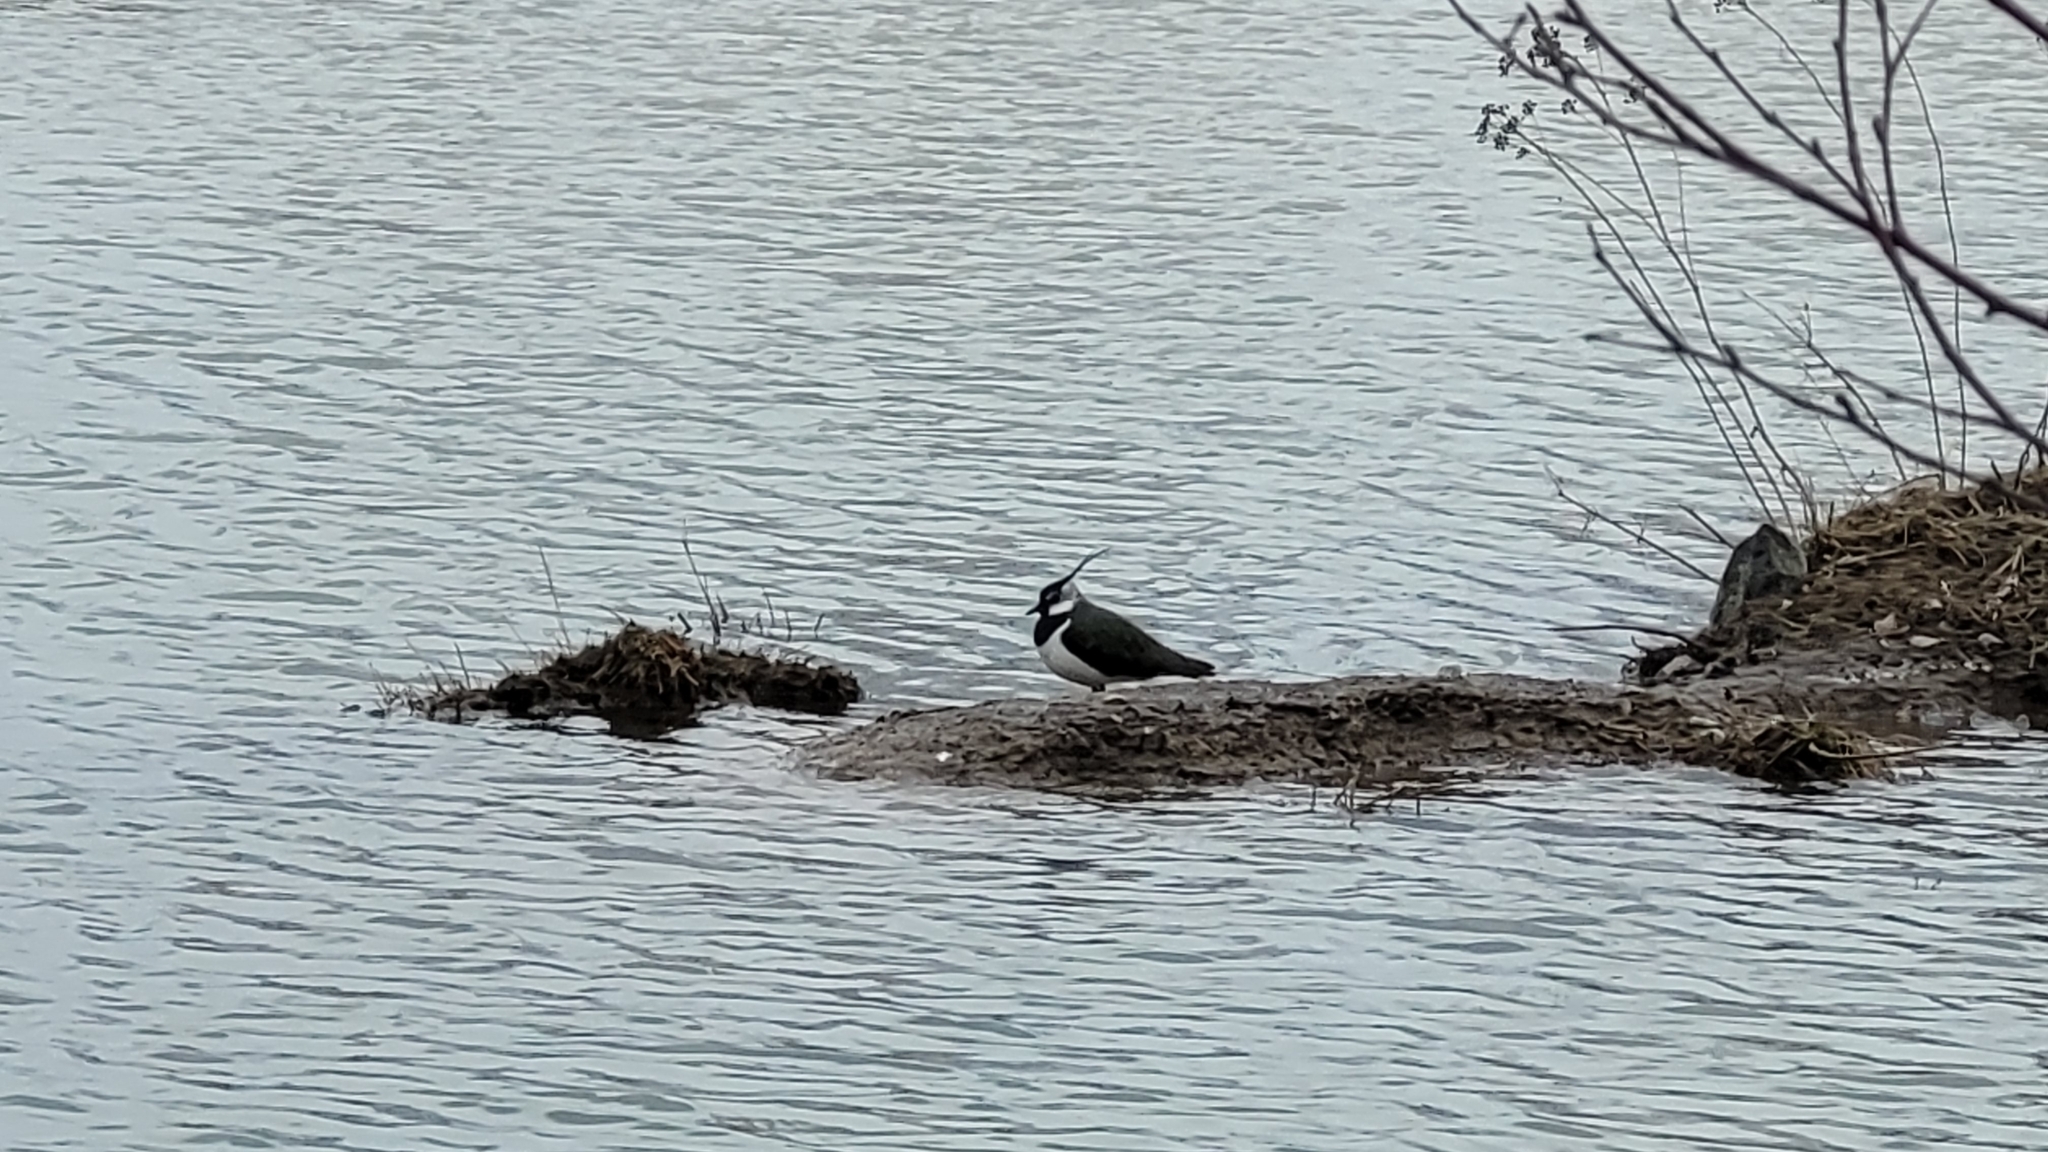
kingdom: Animalia
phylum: Chordata
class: Aves
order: Charadriiformes
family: Charadriidae
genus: Vanellus
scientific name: Vanellus vanellus
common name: Northern lapwing
